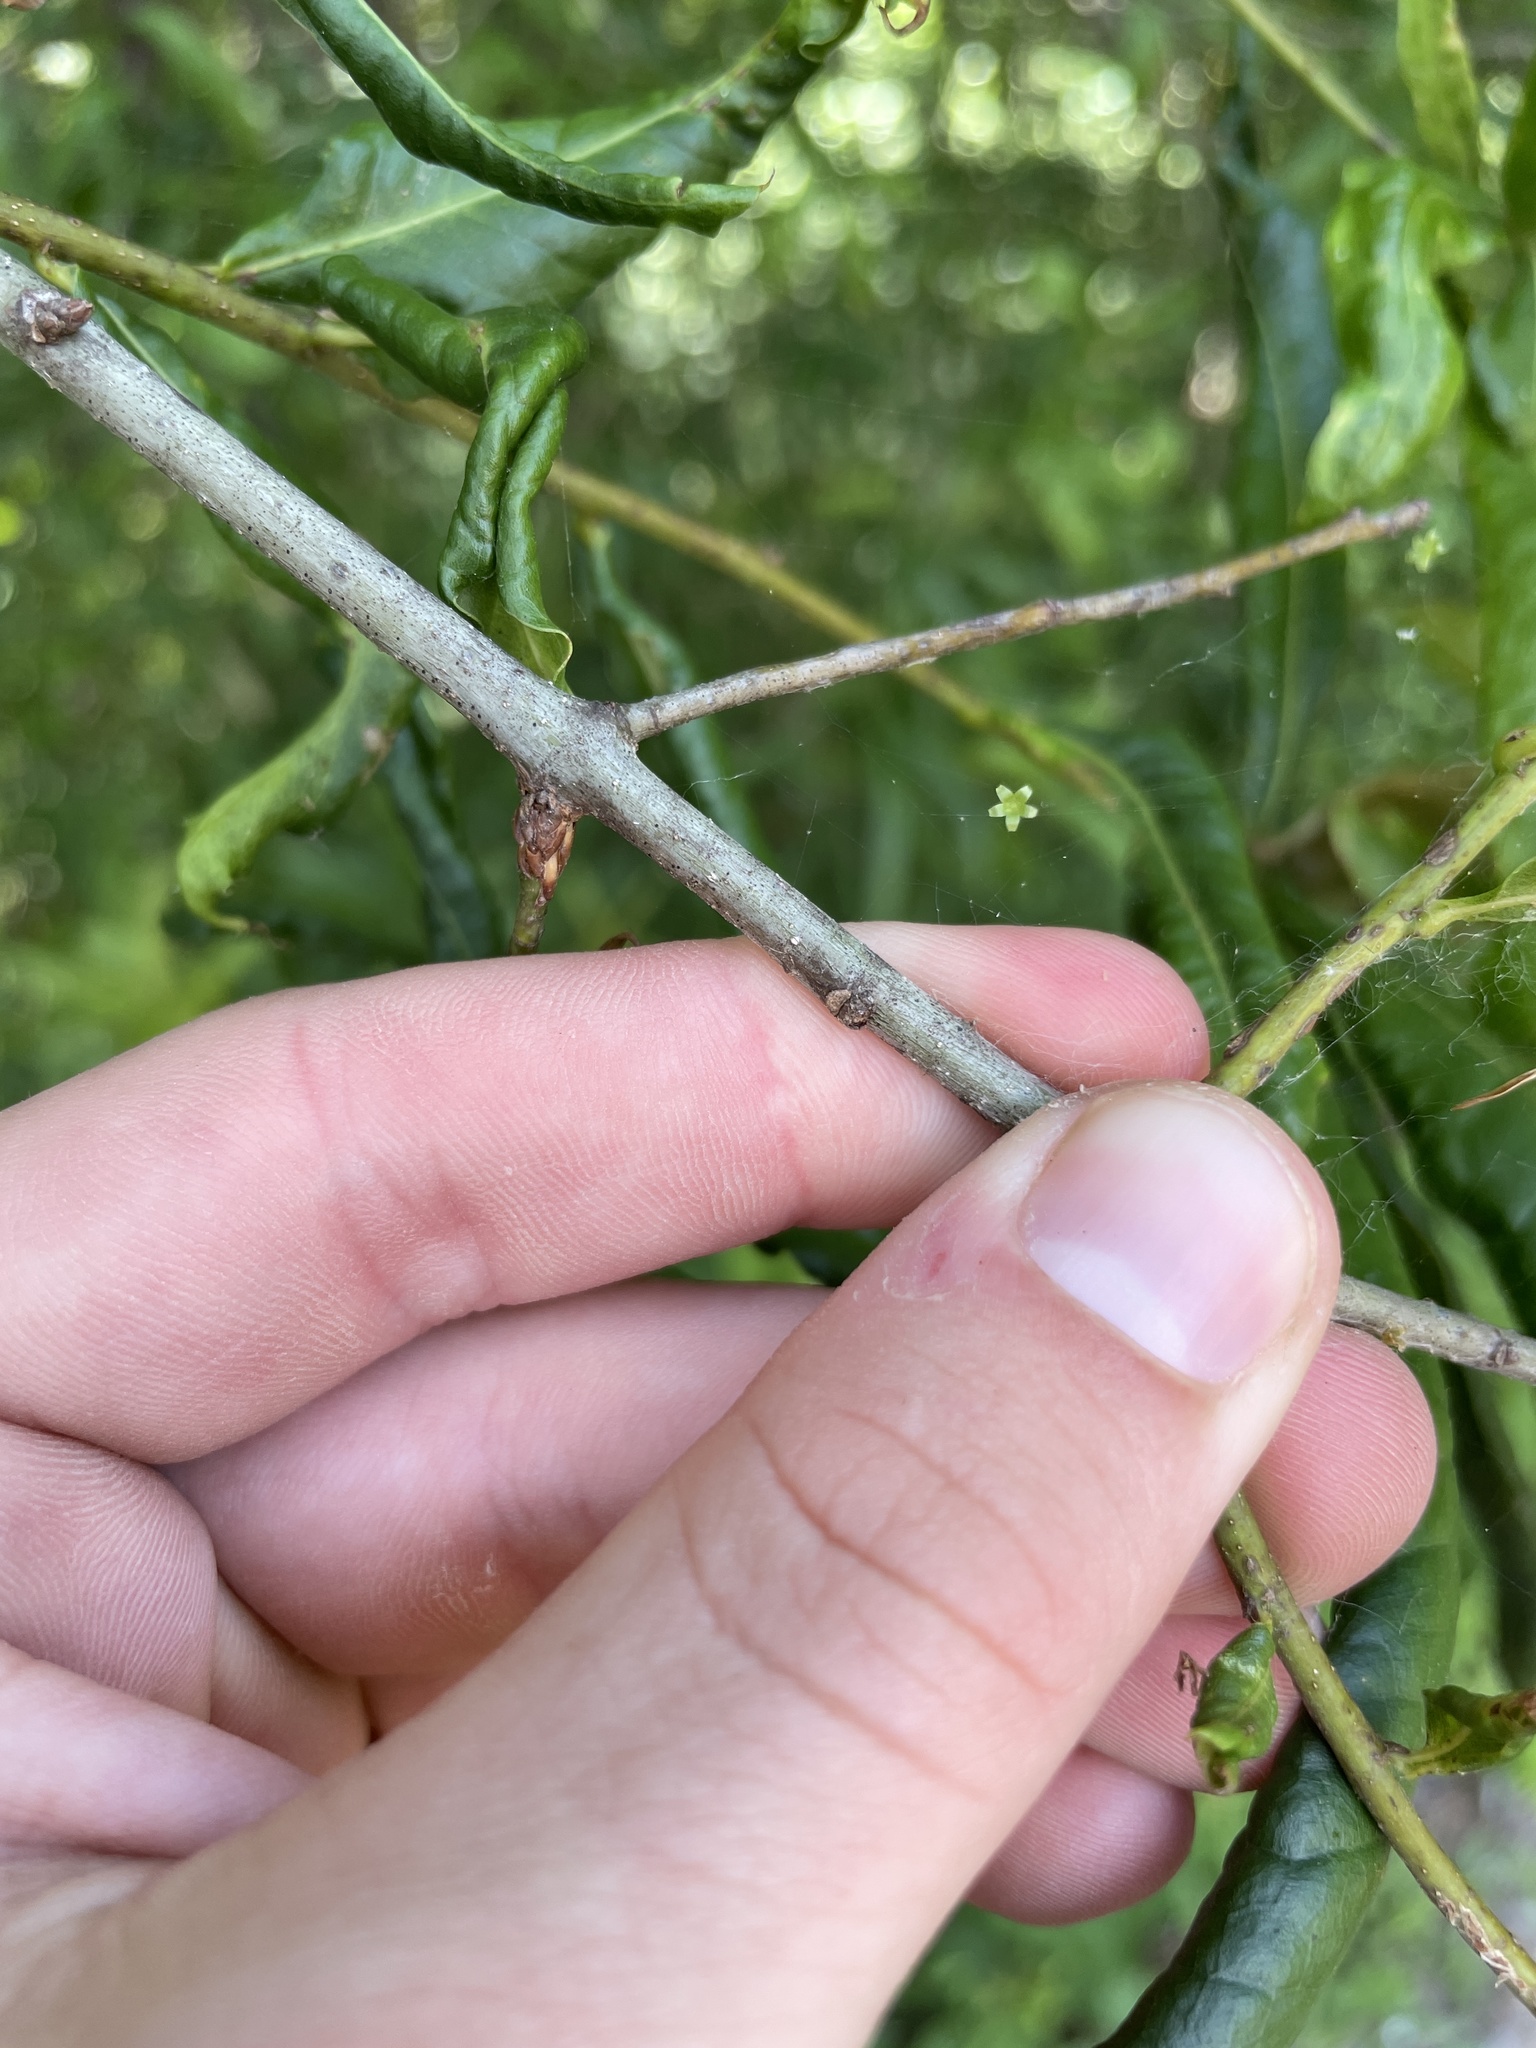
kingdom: Plantae
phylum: Tracheophyta
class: Magnoliopsida
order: Fagales
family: Fagaceae
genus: Quercus
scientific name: Quercus phellos
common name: Willow oak
